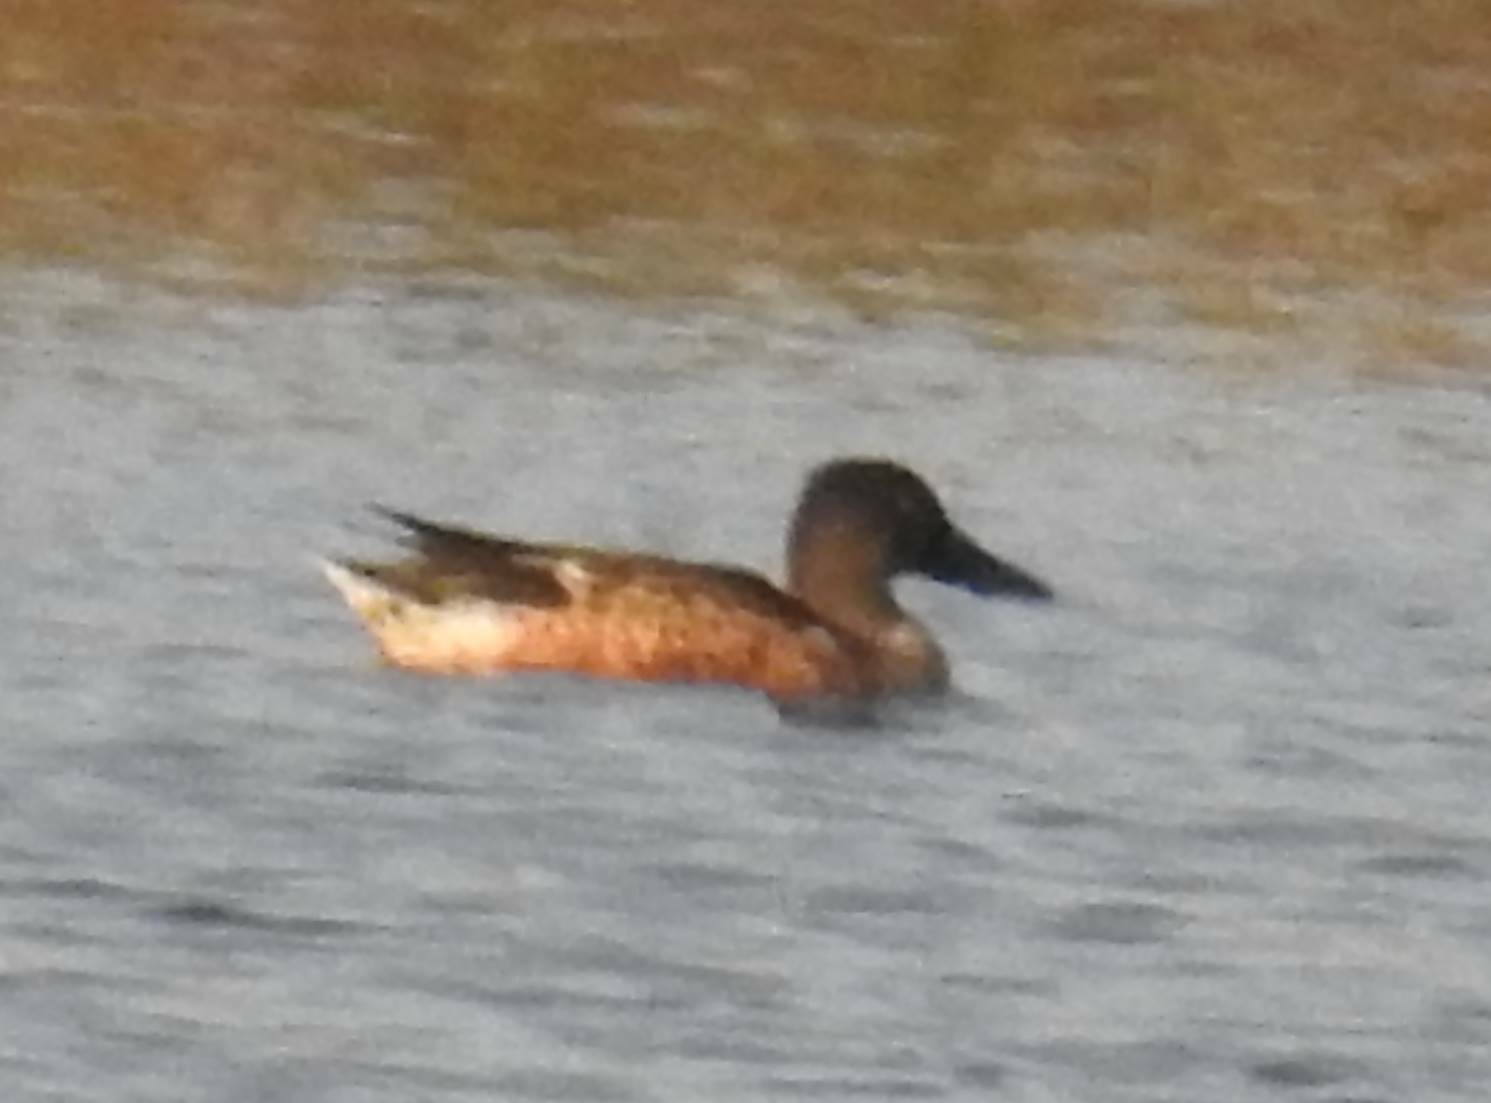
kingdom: Animalia
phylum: Chordata
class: Aves
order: Anseriformes
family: Anatidae
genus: Spatula
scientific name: Spatula clypeata
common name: Northern shoveler
